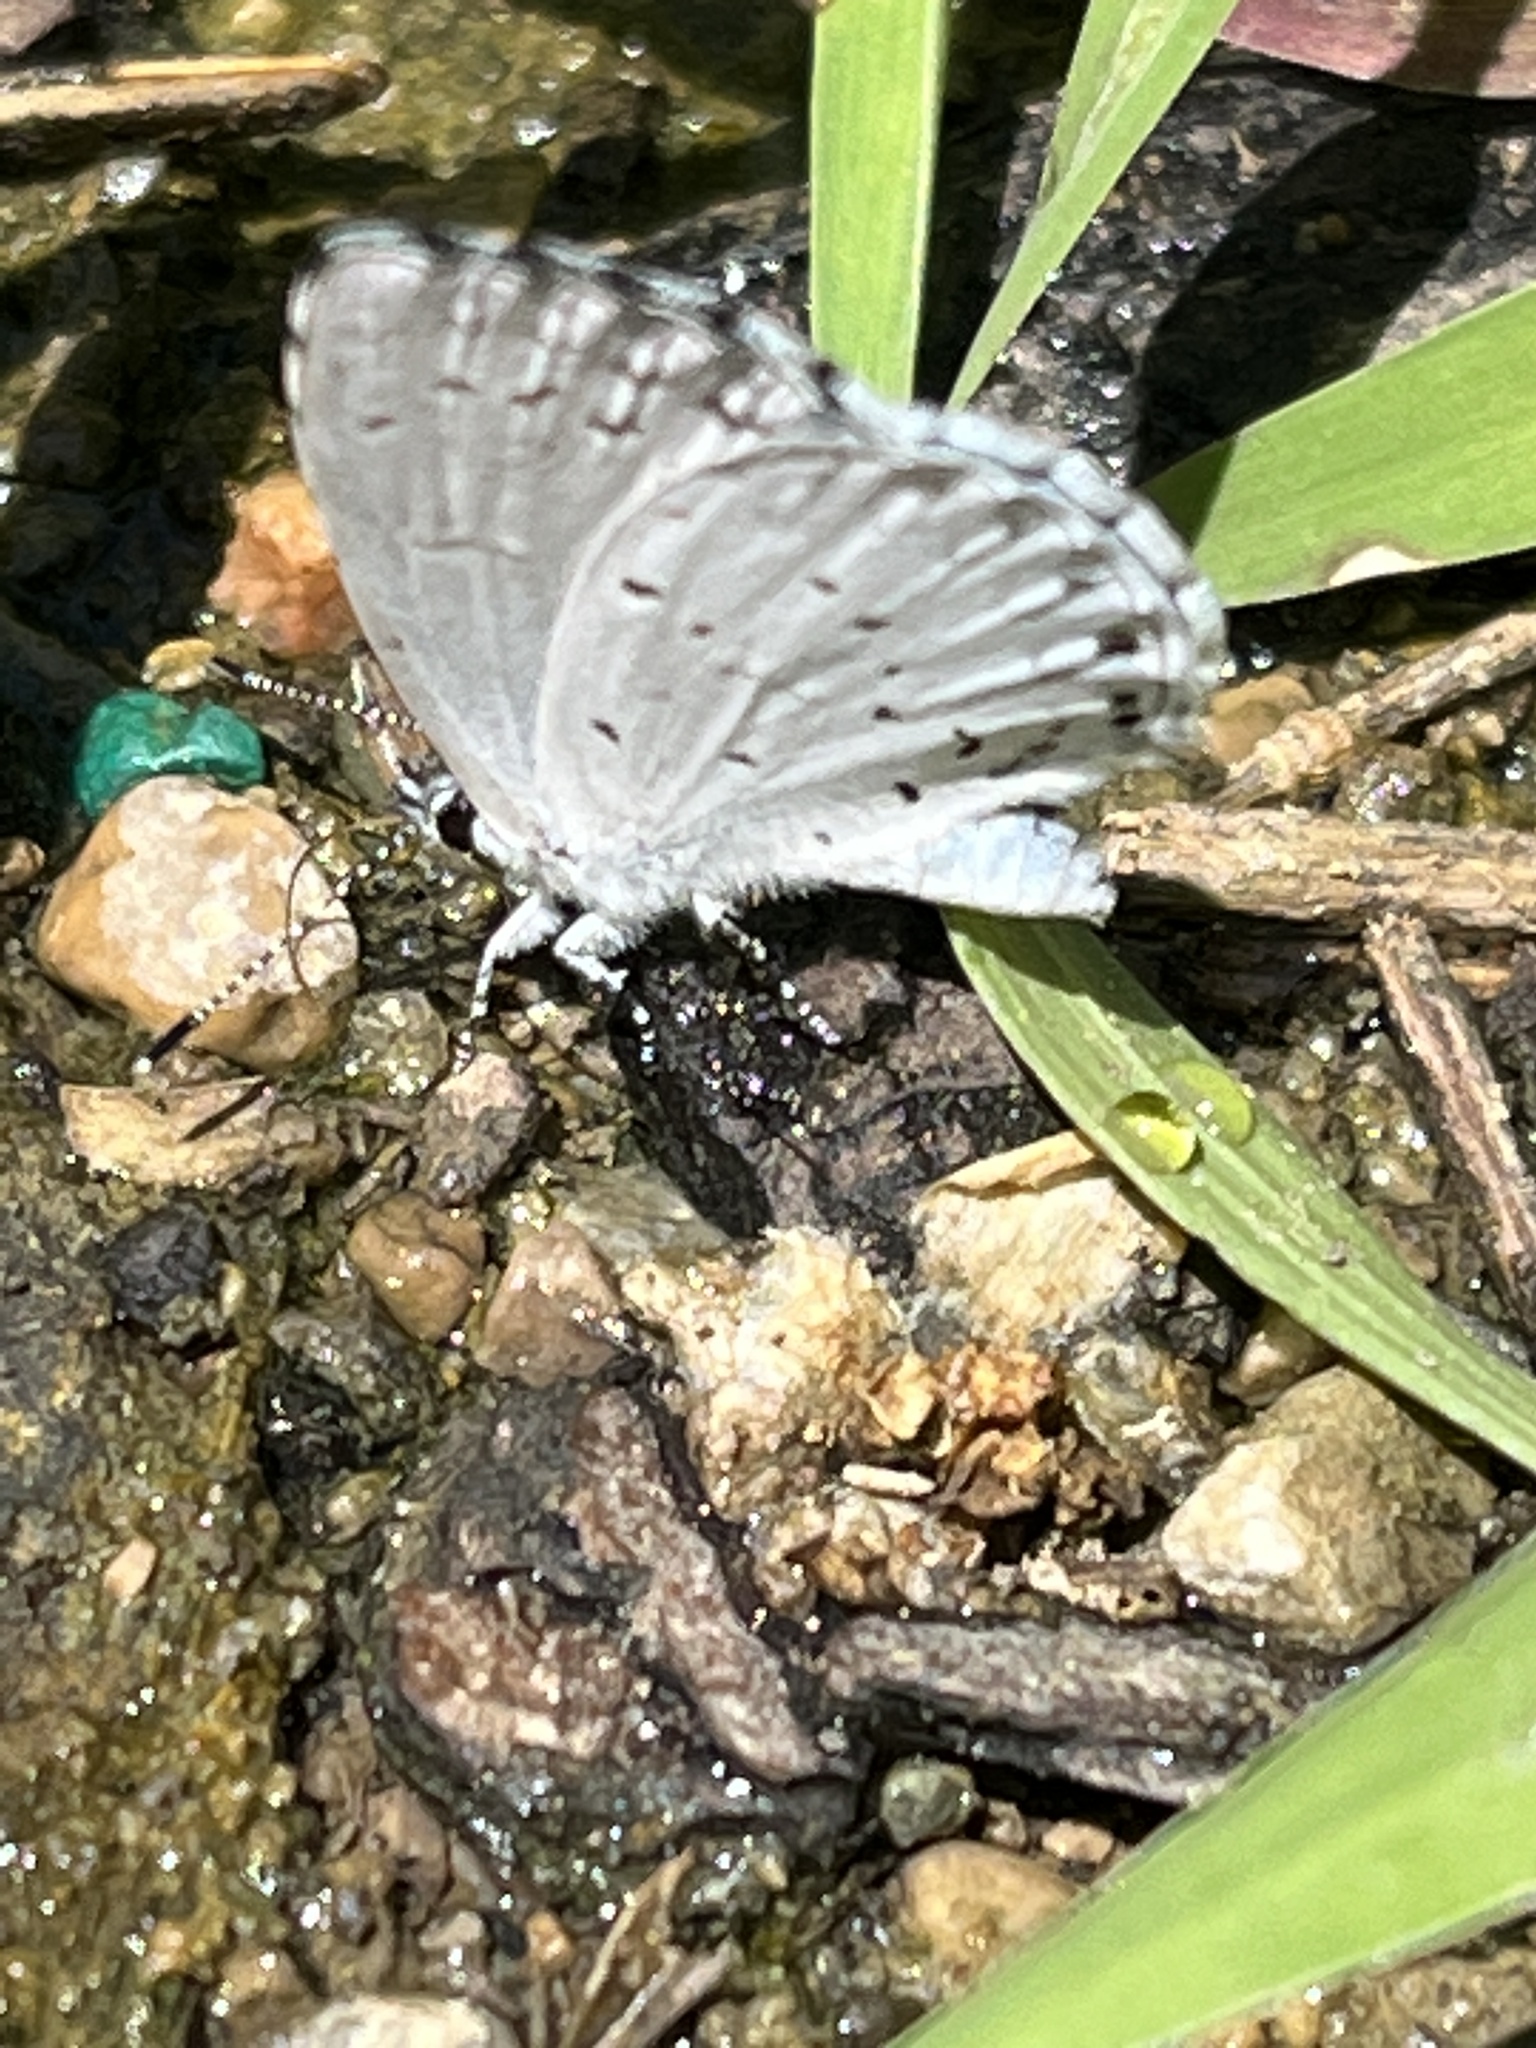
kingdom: Animalia
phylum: Arthropoda
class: Insecta
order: Lepidoptera
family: Lycaenidae
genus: Cyaniris
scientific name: Cyaniris neglecta
